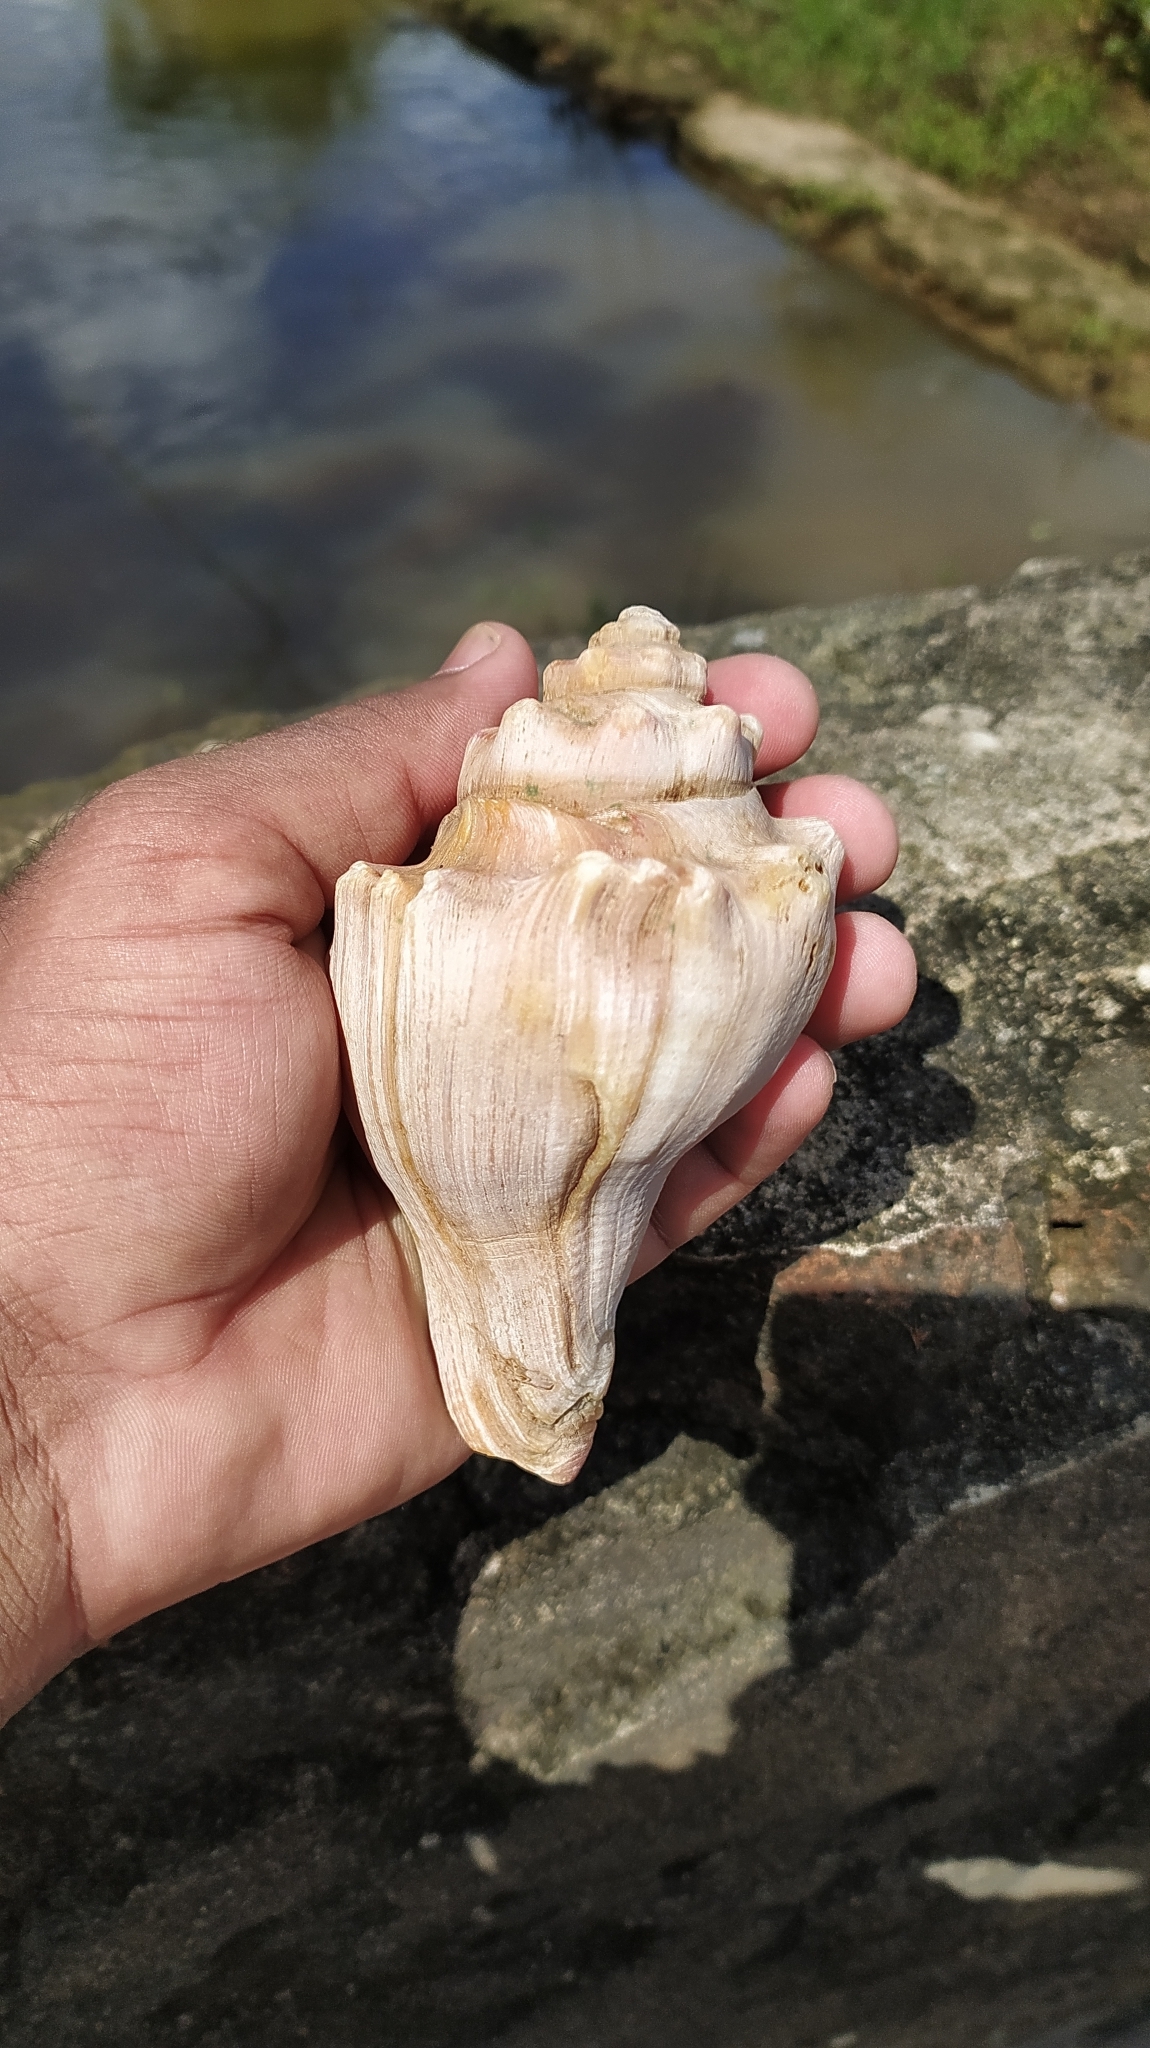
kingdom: Animalia
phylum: Mollusca
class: Gastropoda
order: Neogastropoda
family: Melongenidae
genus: Volegalea
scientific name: Volegalea cochlidium
